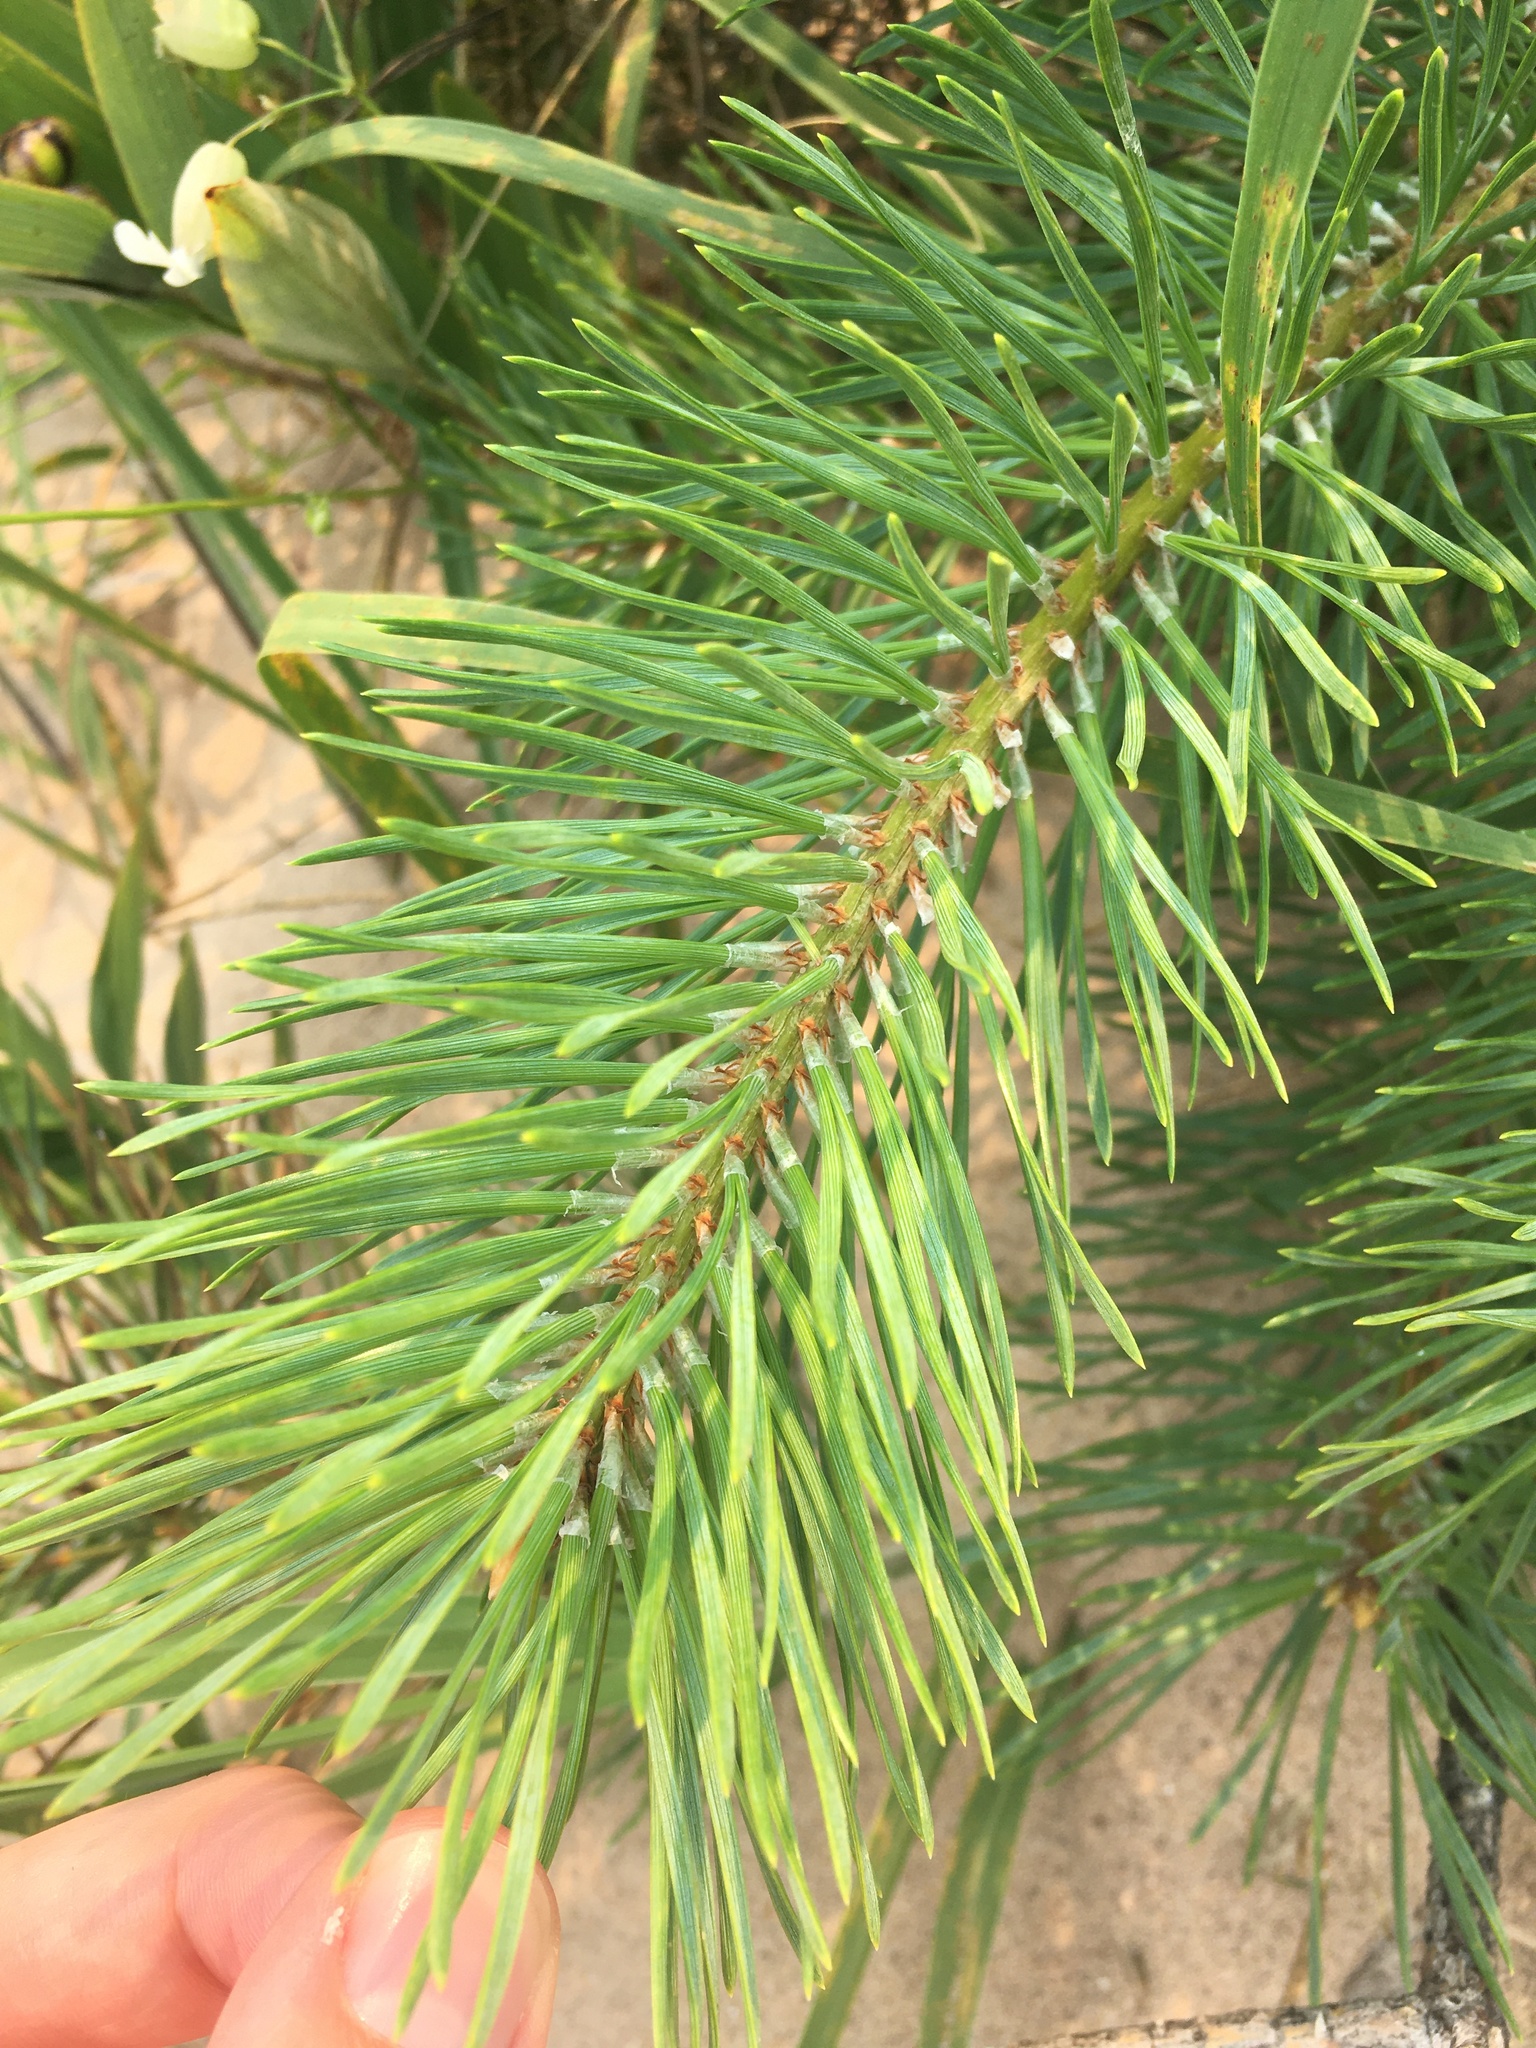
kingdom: Plantae
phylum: Tracheophyta
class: Pinopsida
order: Pinales
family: Pinaceae
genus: Pinus
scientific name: Pinus banksiana
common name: Jack pine
